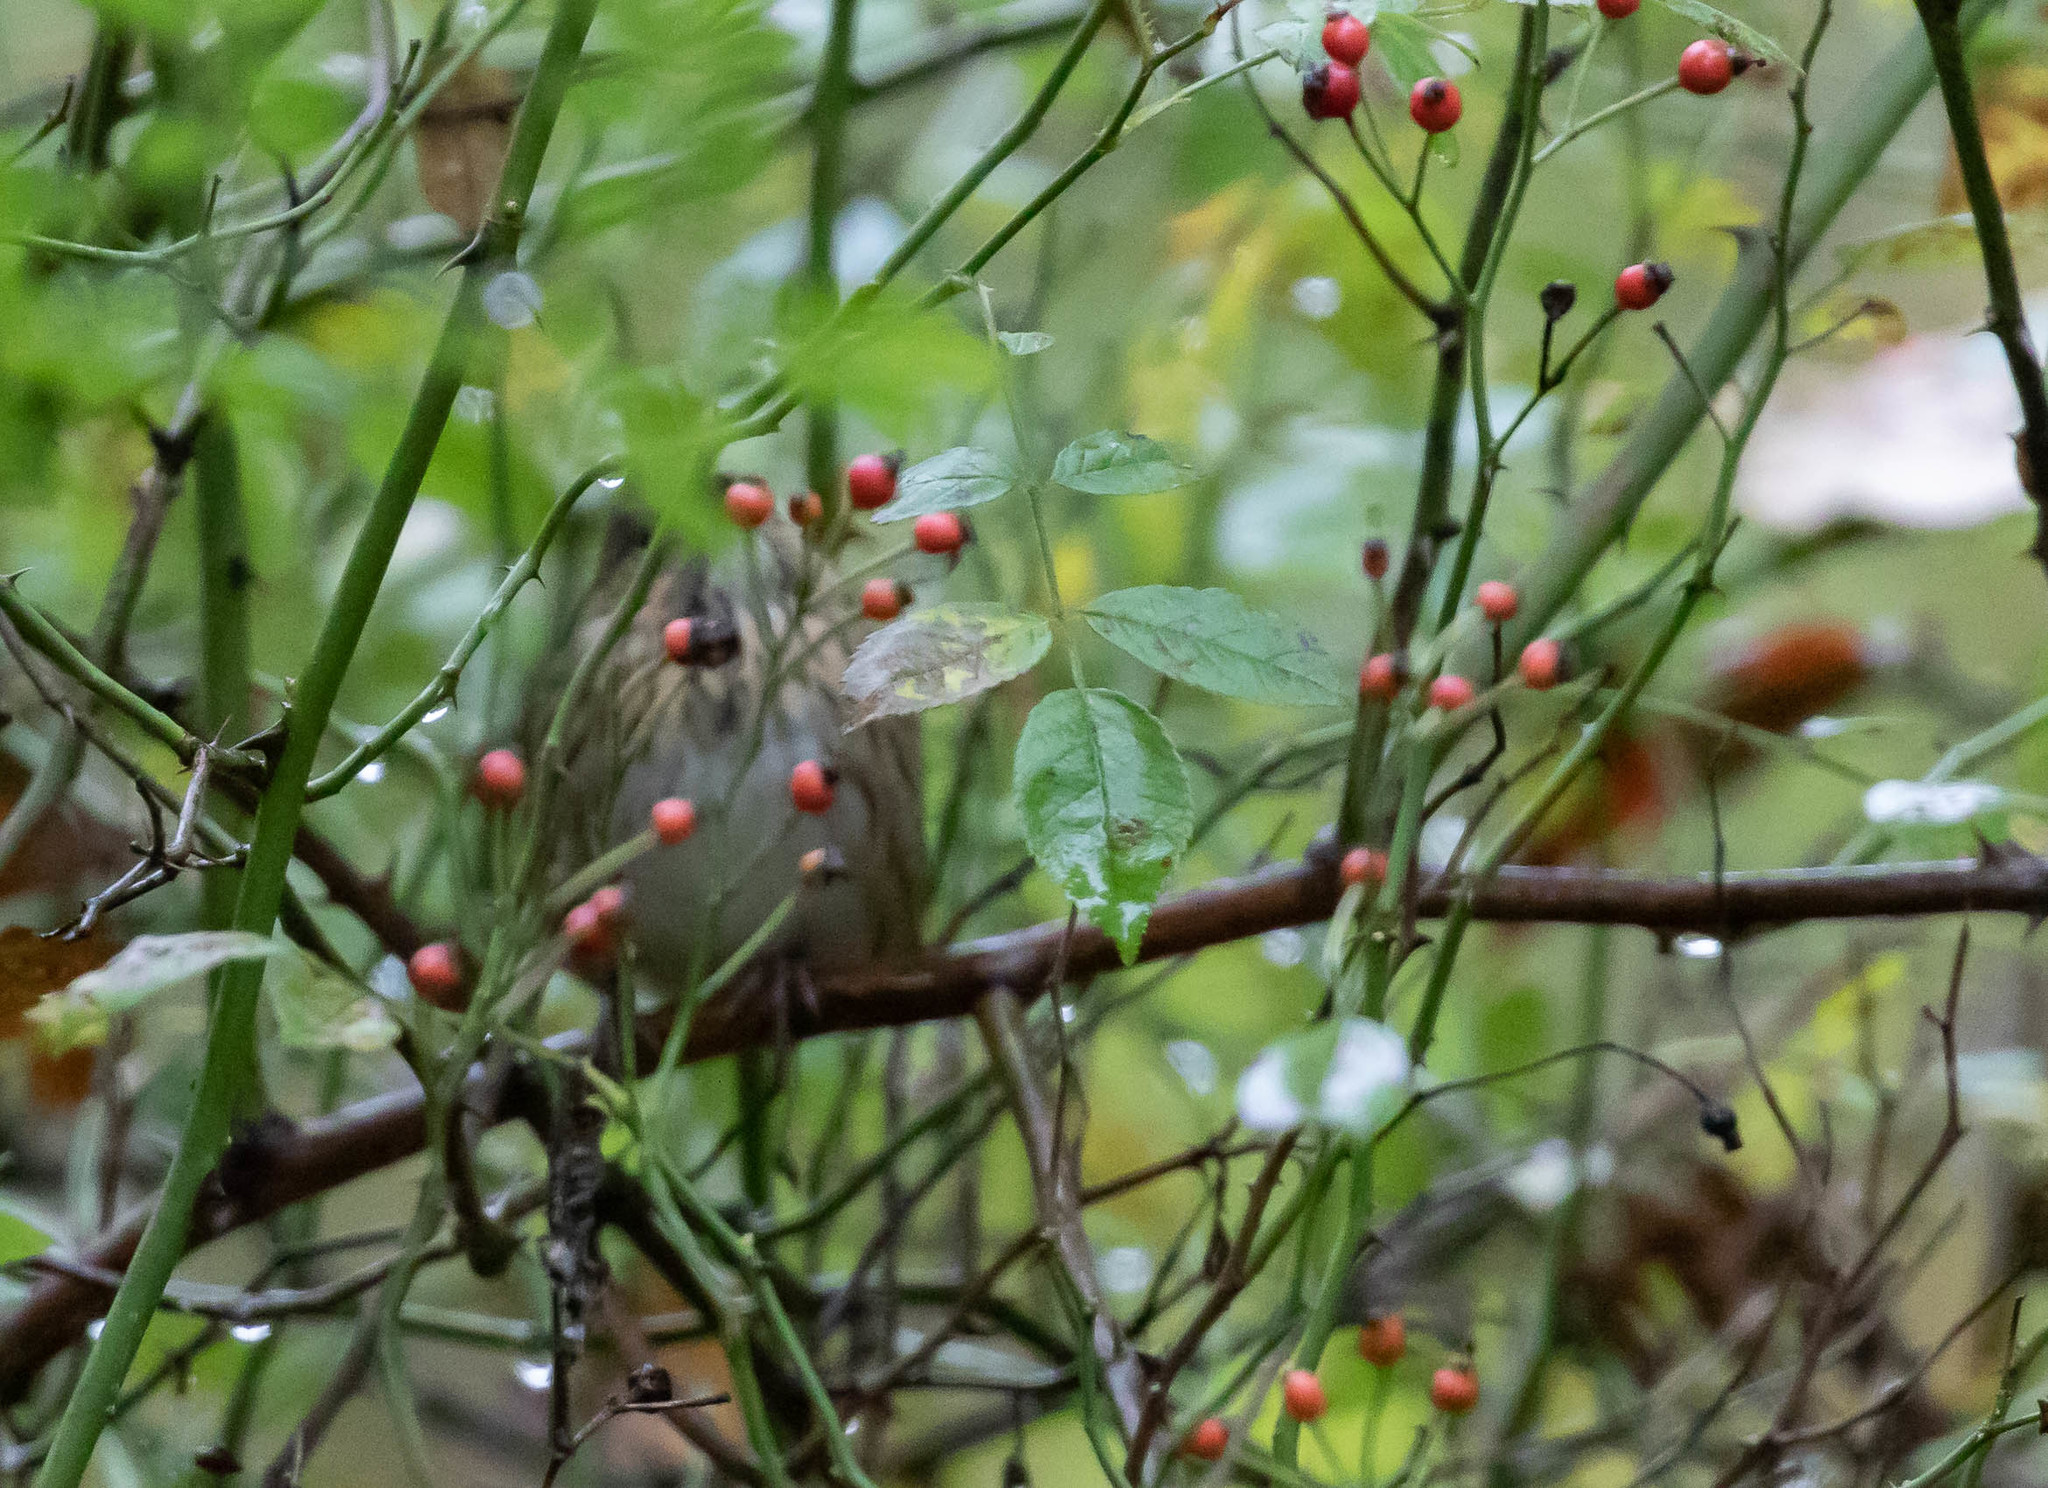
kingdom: Animalia
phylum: Chordata
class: Aves
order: Passeriformes
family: Passerellidae
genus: Melospiza
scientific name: Melospiza lincolnii
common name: Lincoln's sparrow
